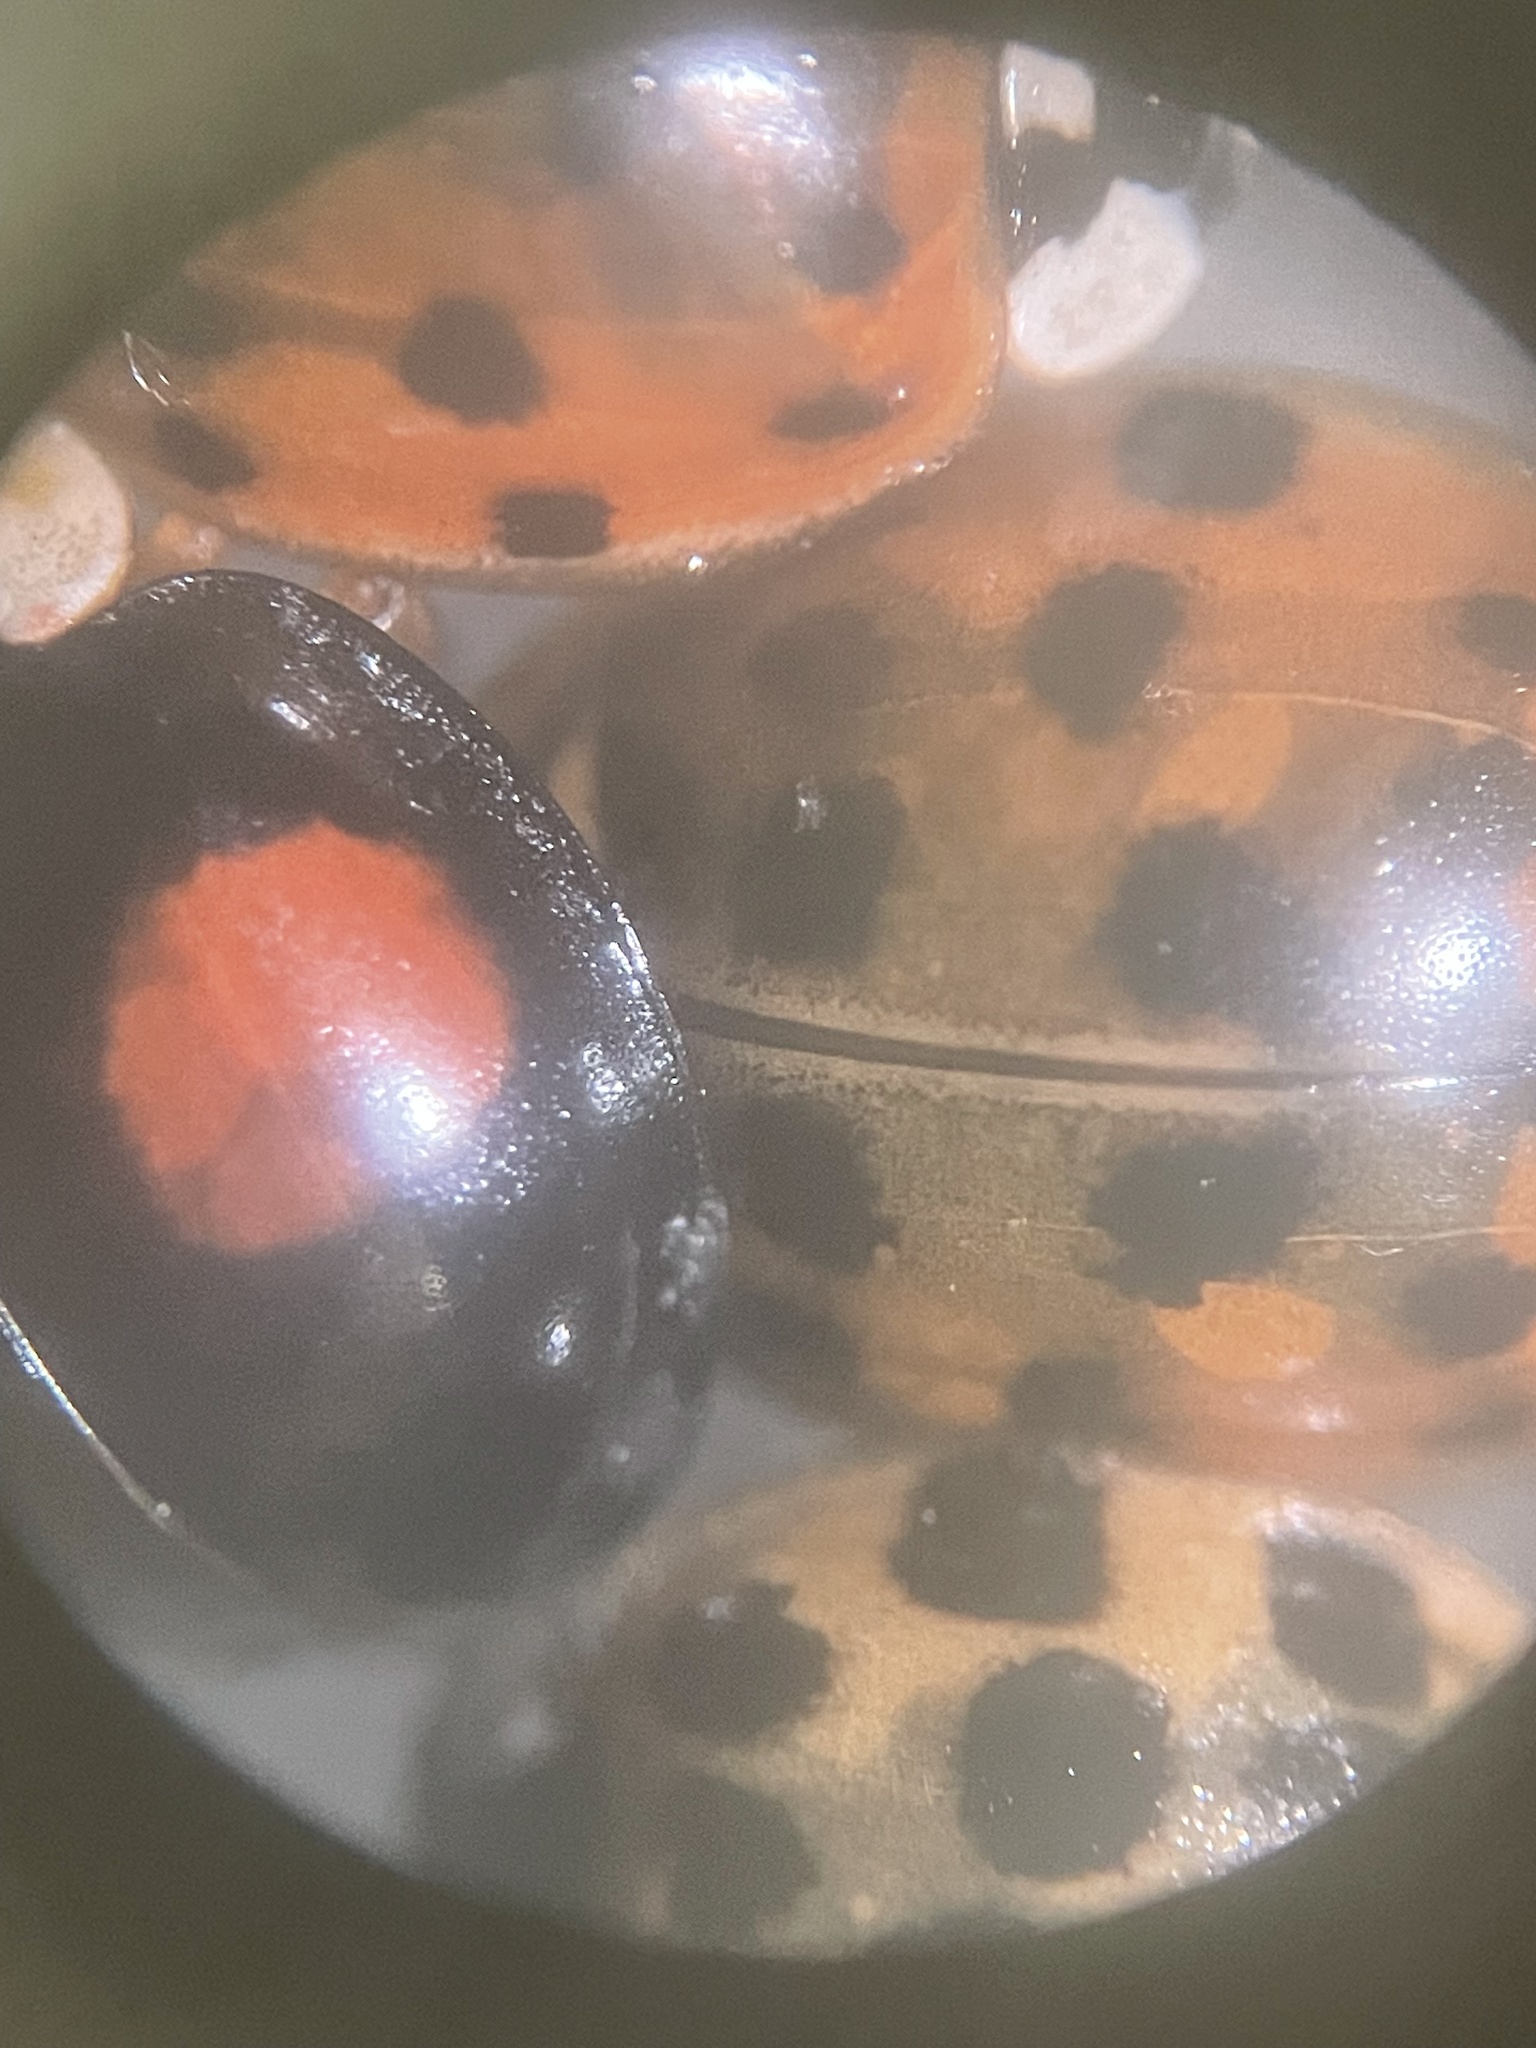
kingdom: Animalia
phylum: Arthropoda
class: Insecta
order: Coleoptera
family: Coccinellidae
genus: Harmonia
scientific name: Harmonia axyridis
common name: Harlequin ladybird
